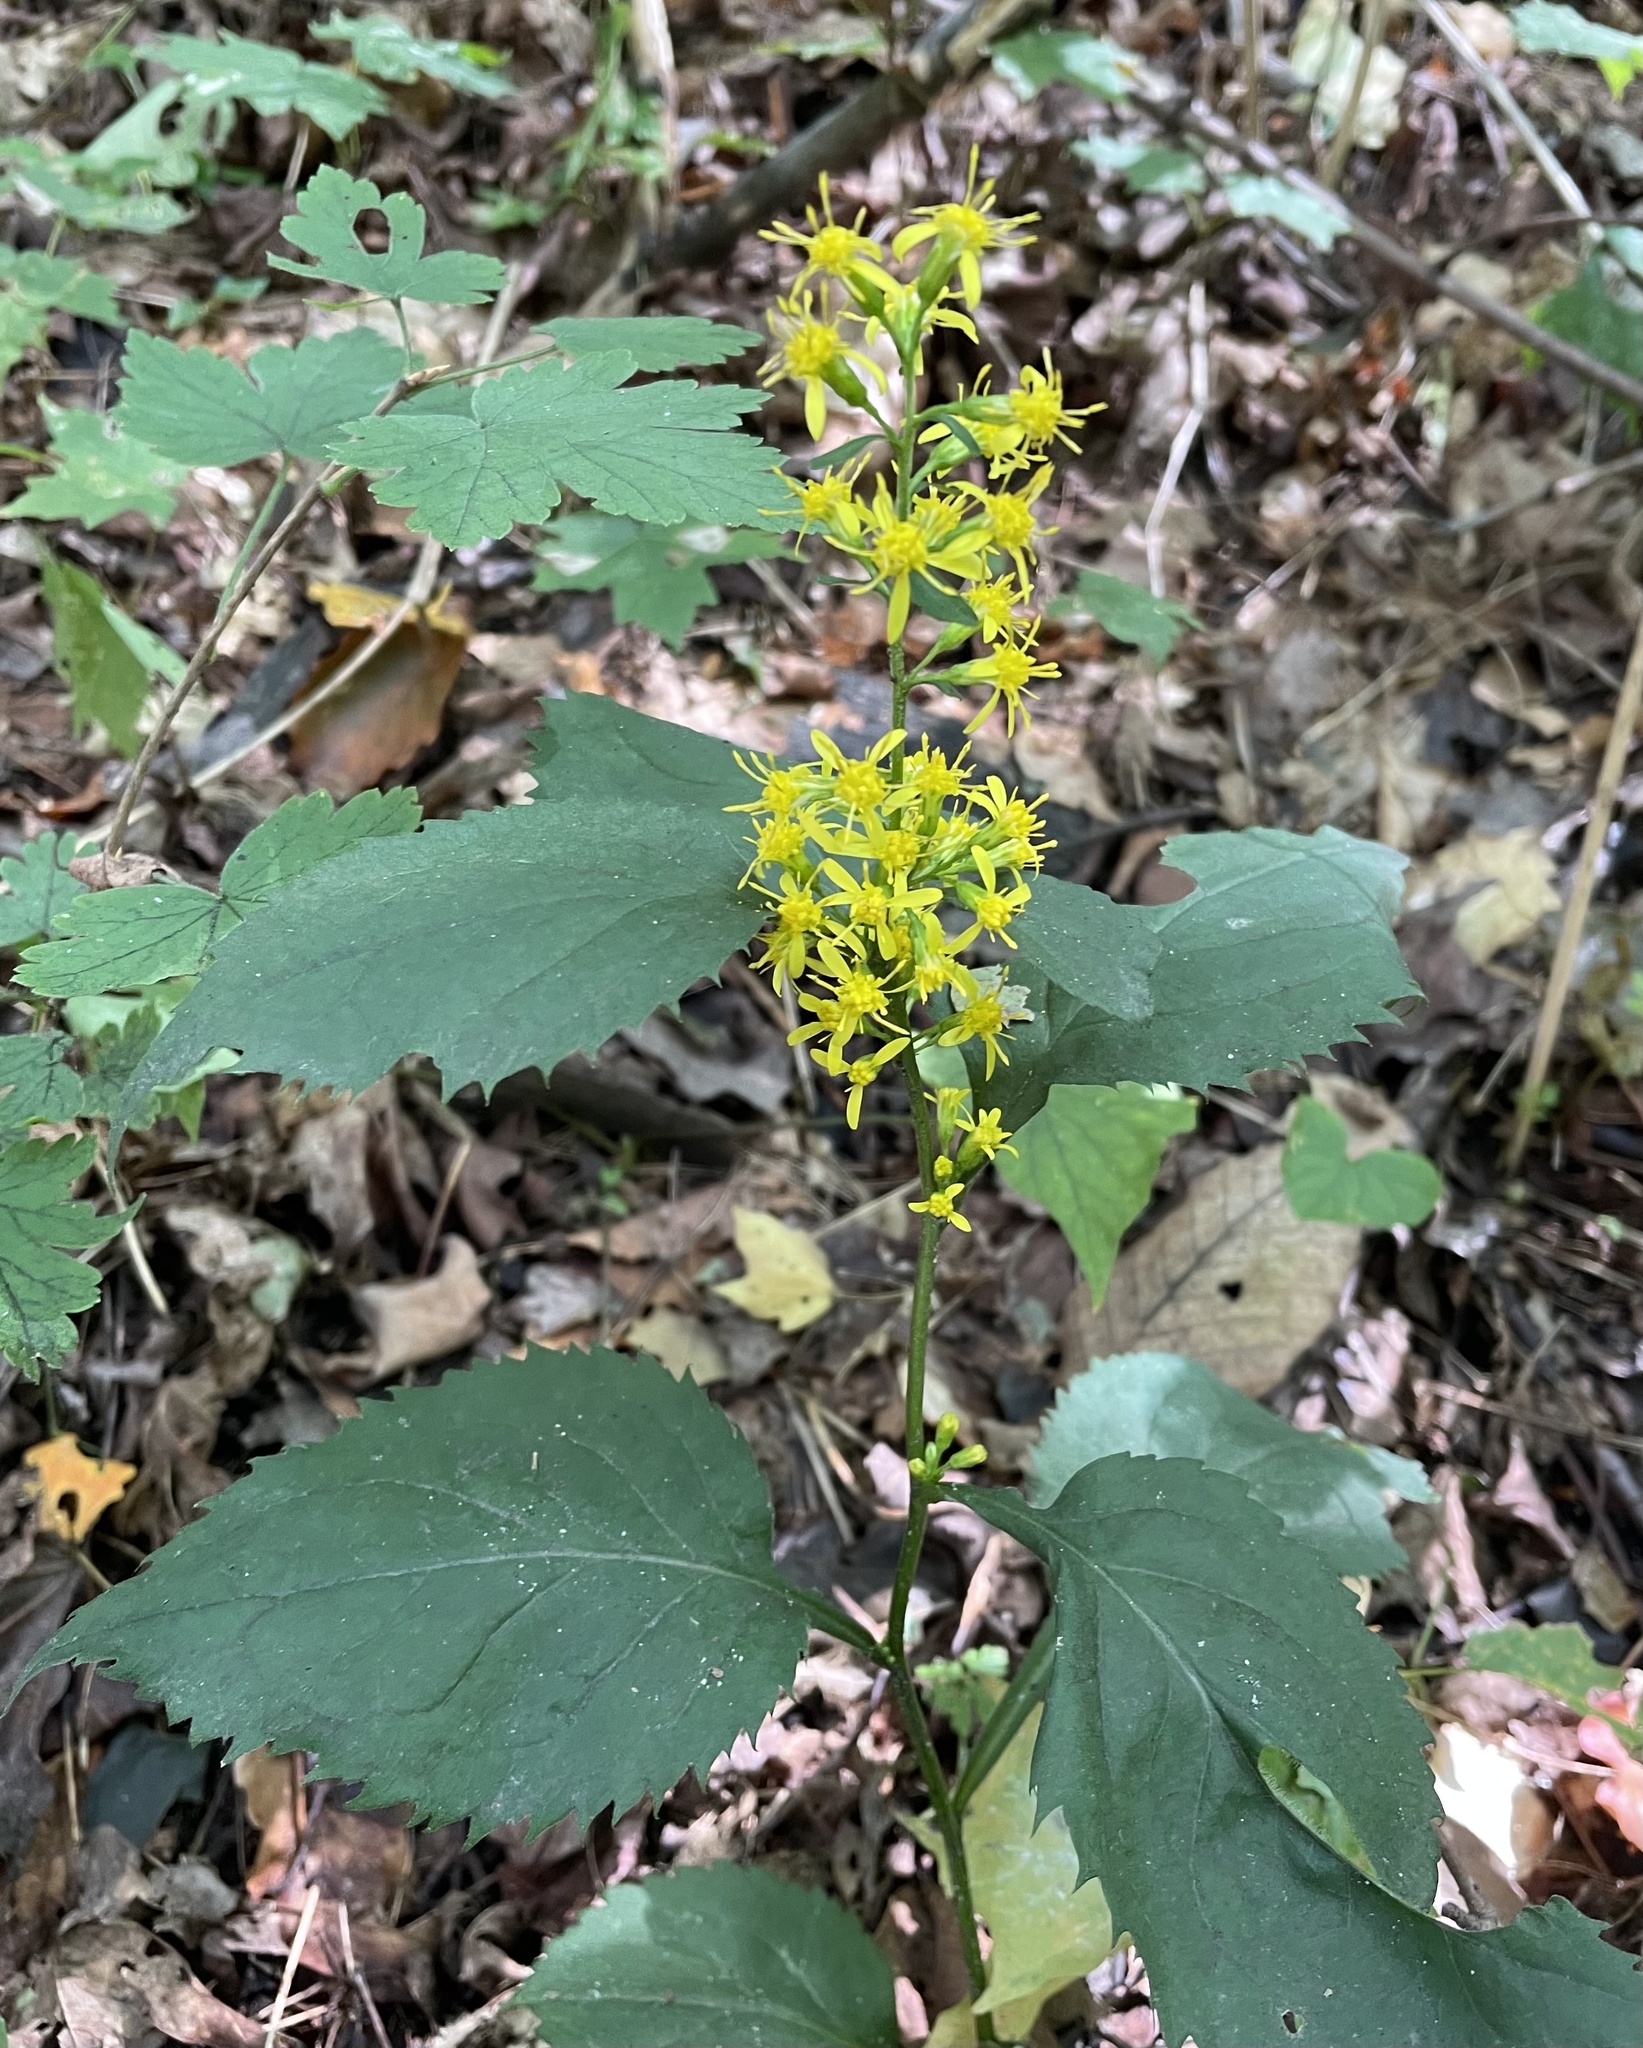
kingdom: Plantae
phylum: Tracheophyta
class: Magnoliopsida
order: Asterales
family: Asteraceae
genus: Solidago
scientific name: Solidago flexicaulis
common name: Zig-zag goldenrod
